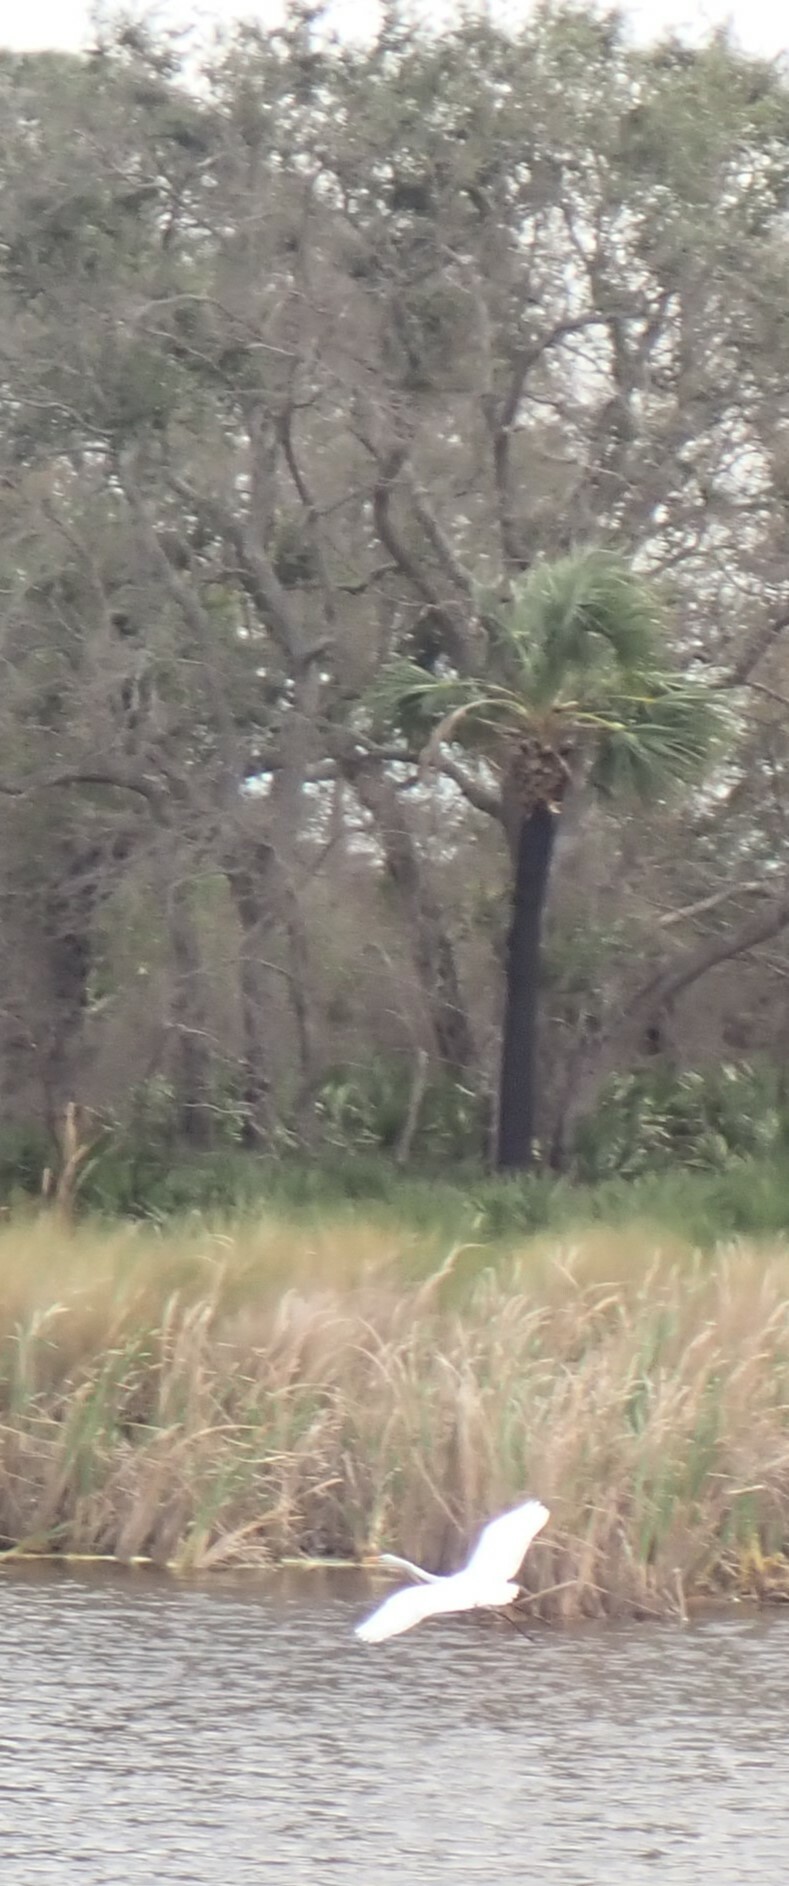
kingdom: Animalia
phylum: Chordata
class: Aves
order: Pelecaniformes
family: Ardeidae
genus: Ardea
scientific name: Ardea alba
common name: Great egret
